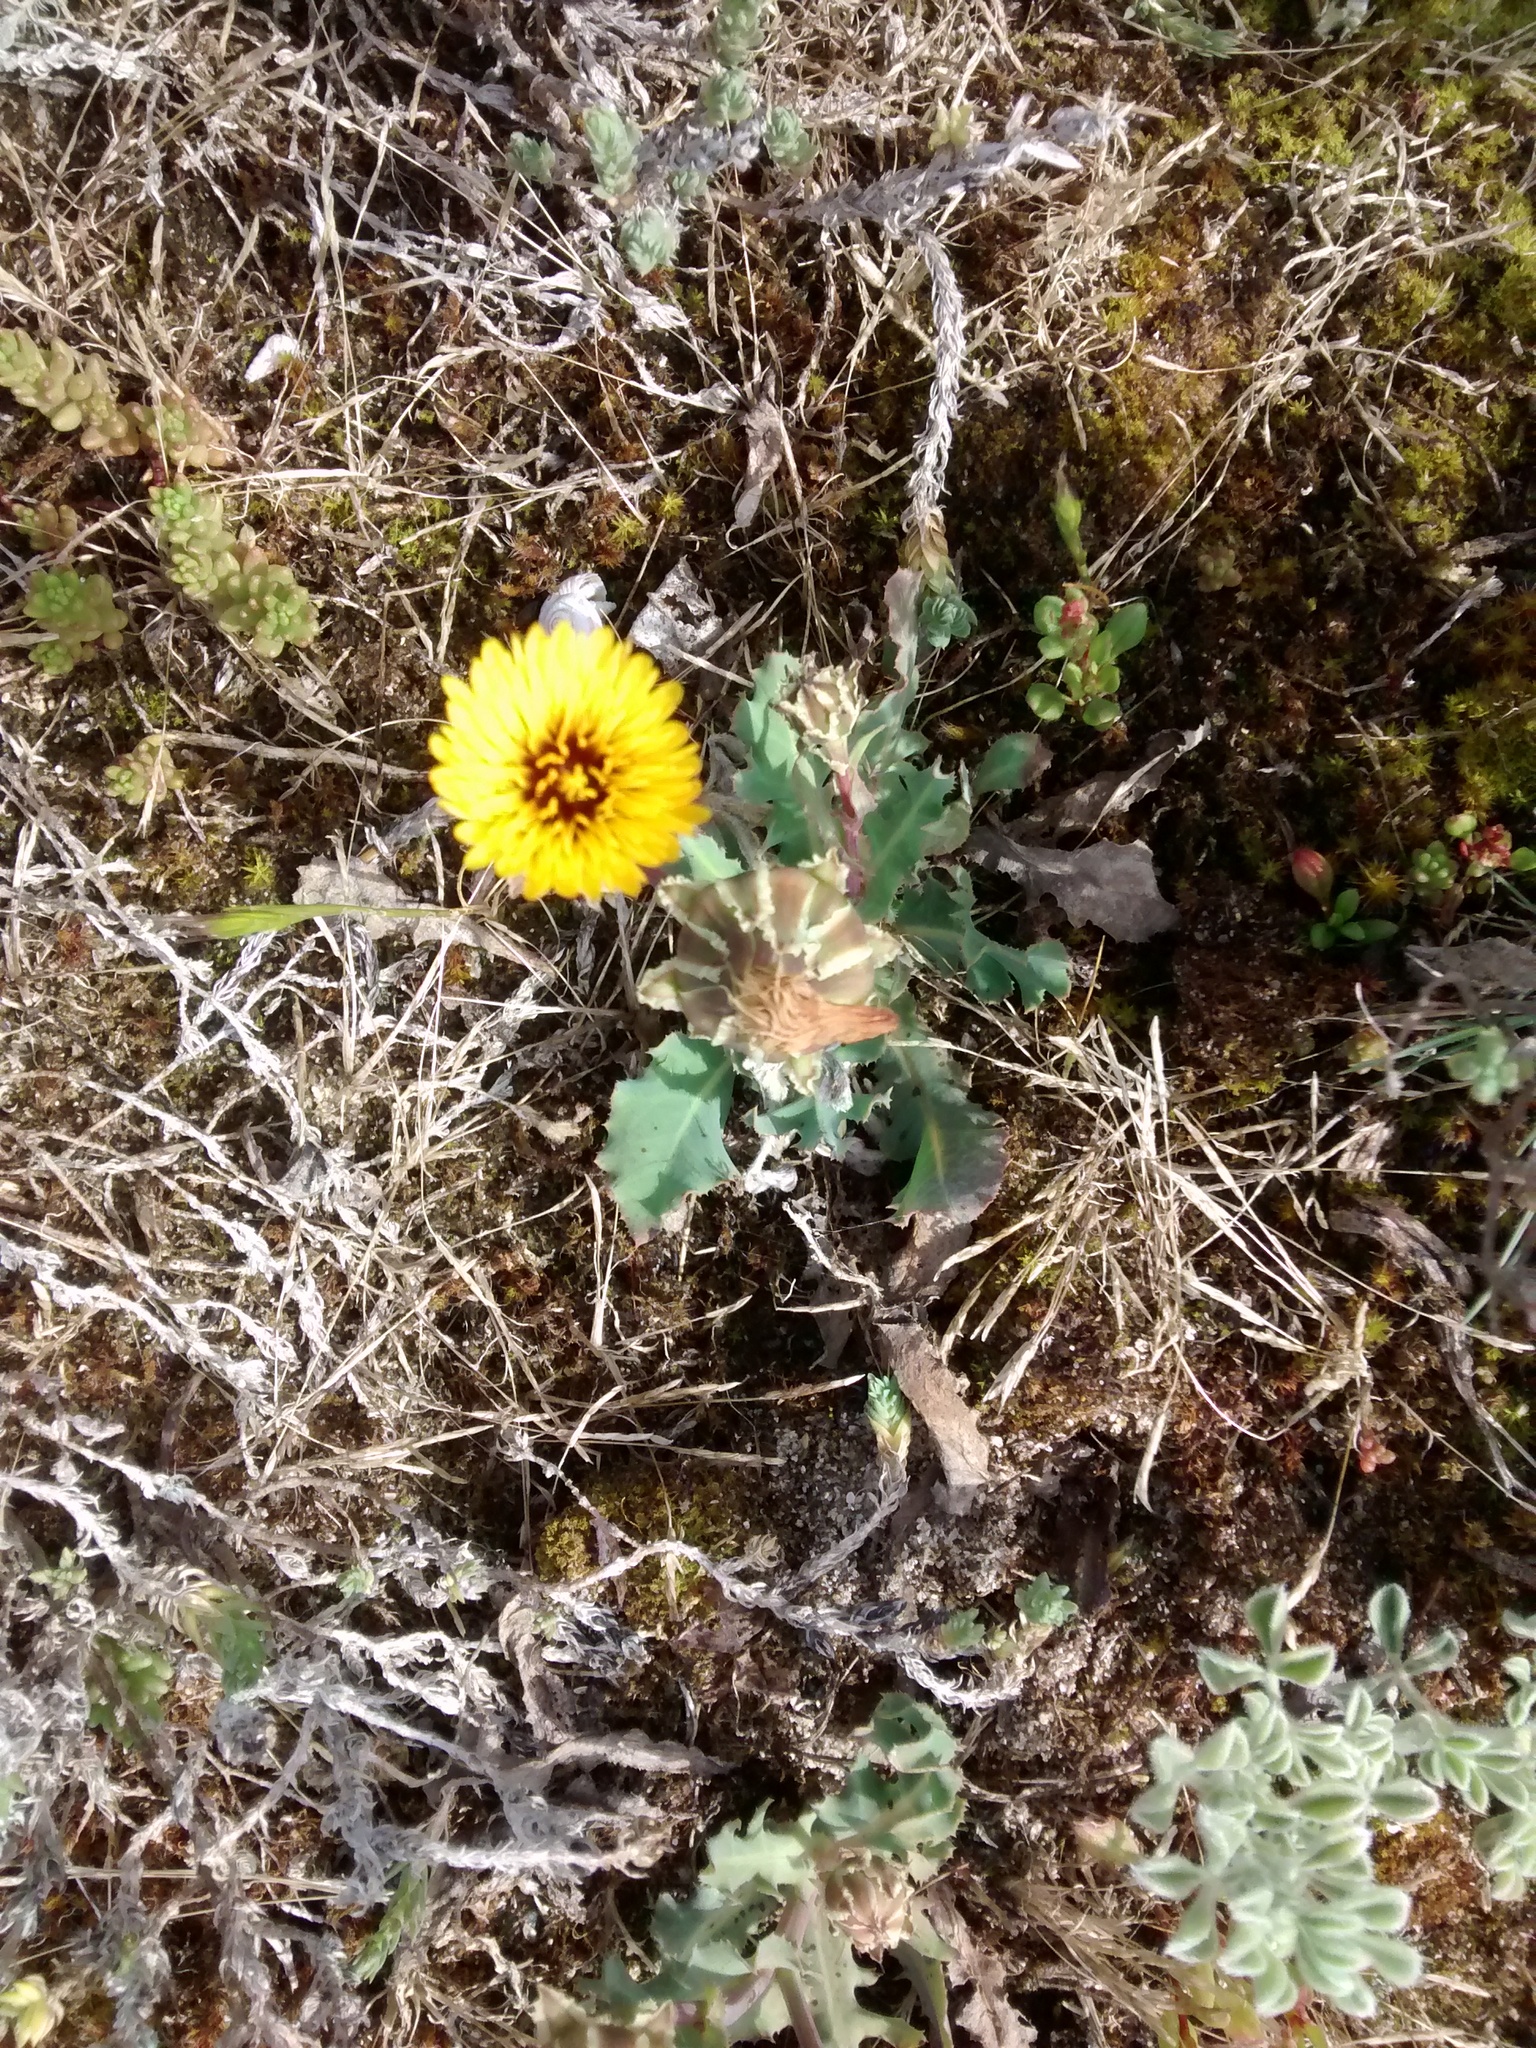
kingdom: Plantae
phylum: Tracheophyta
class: Magnoliopsida
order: Asterales
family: Asteraceae
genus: Reichardia
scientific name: Reichardia gaditana
